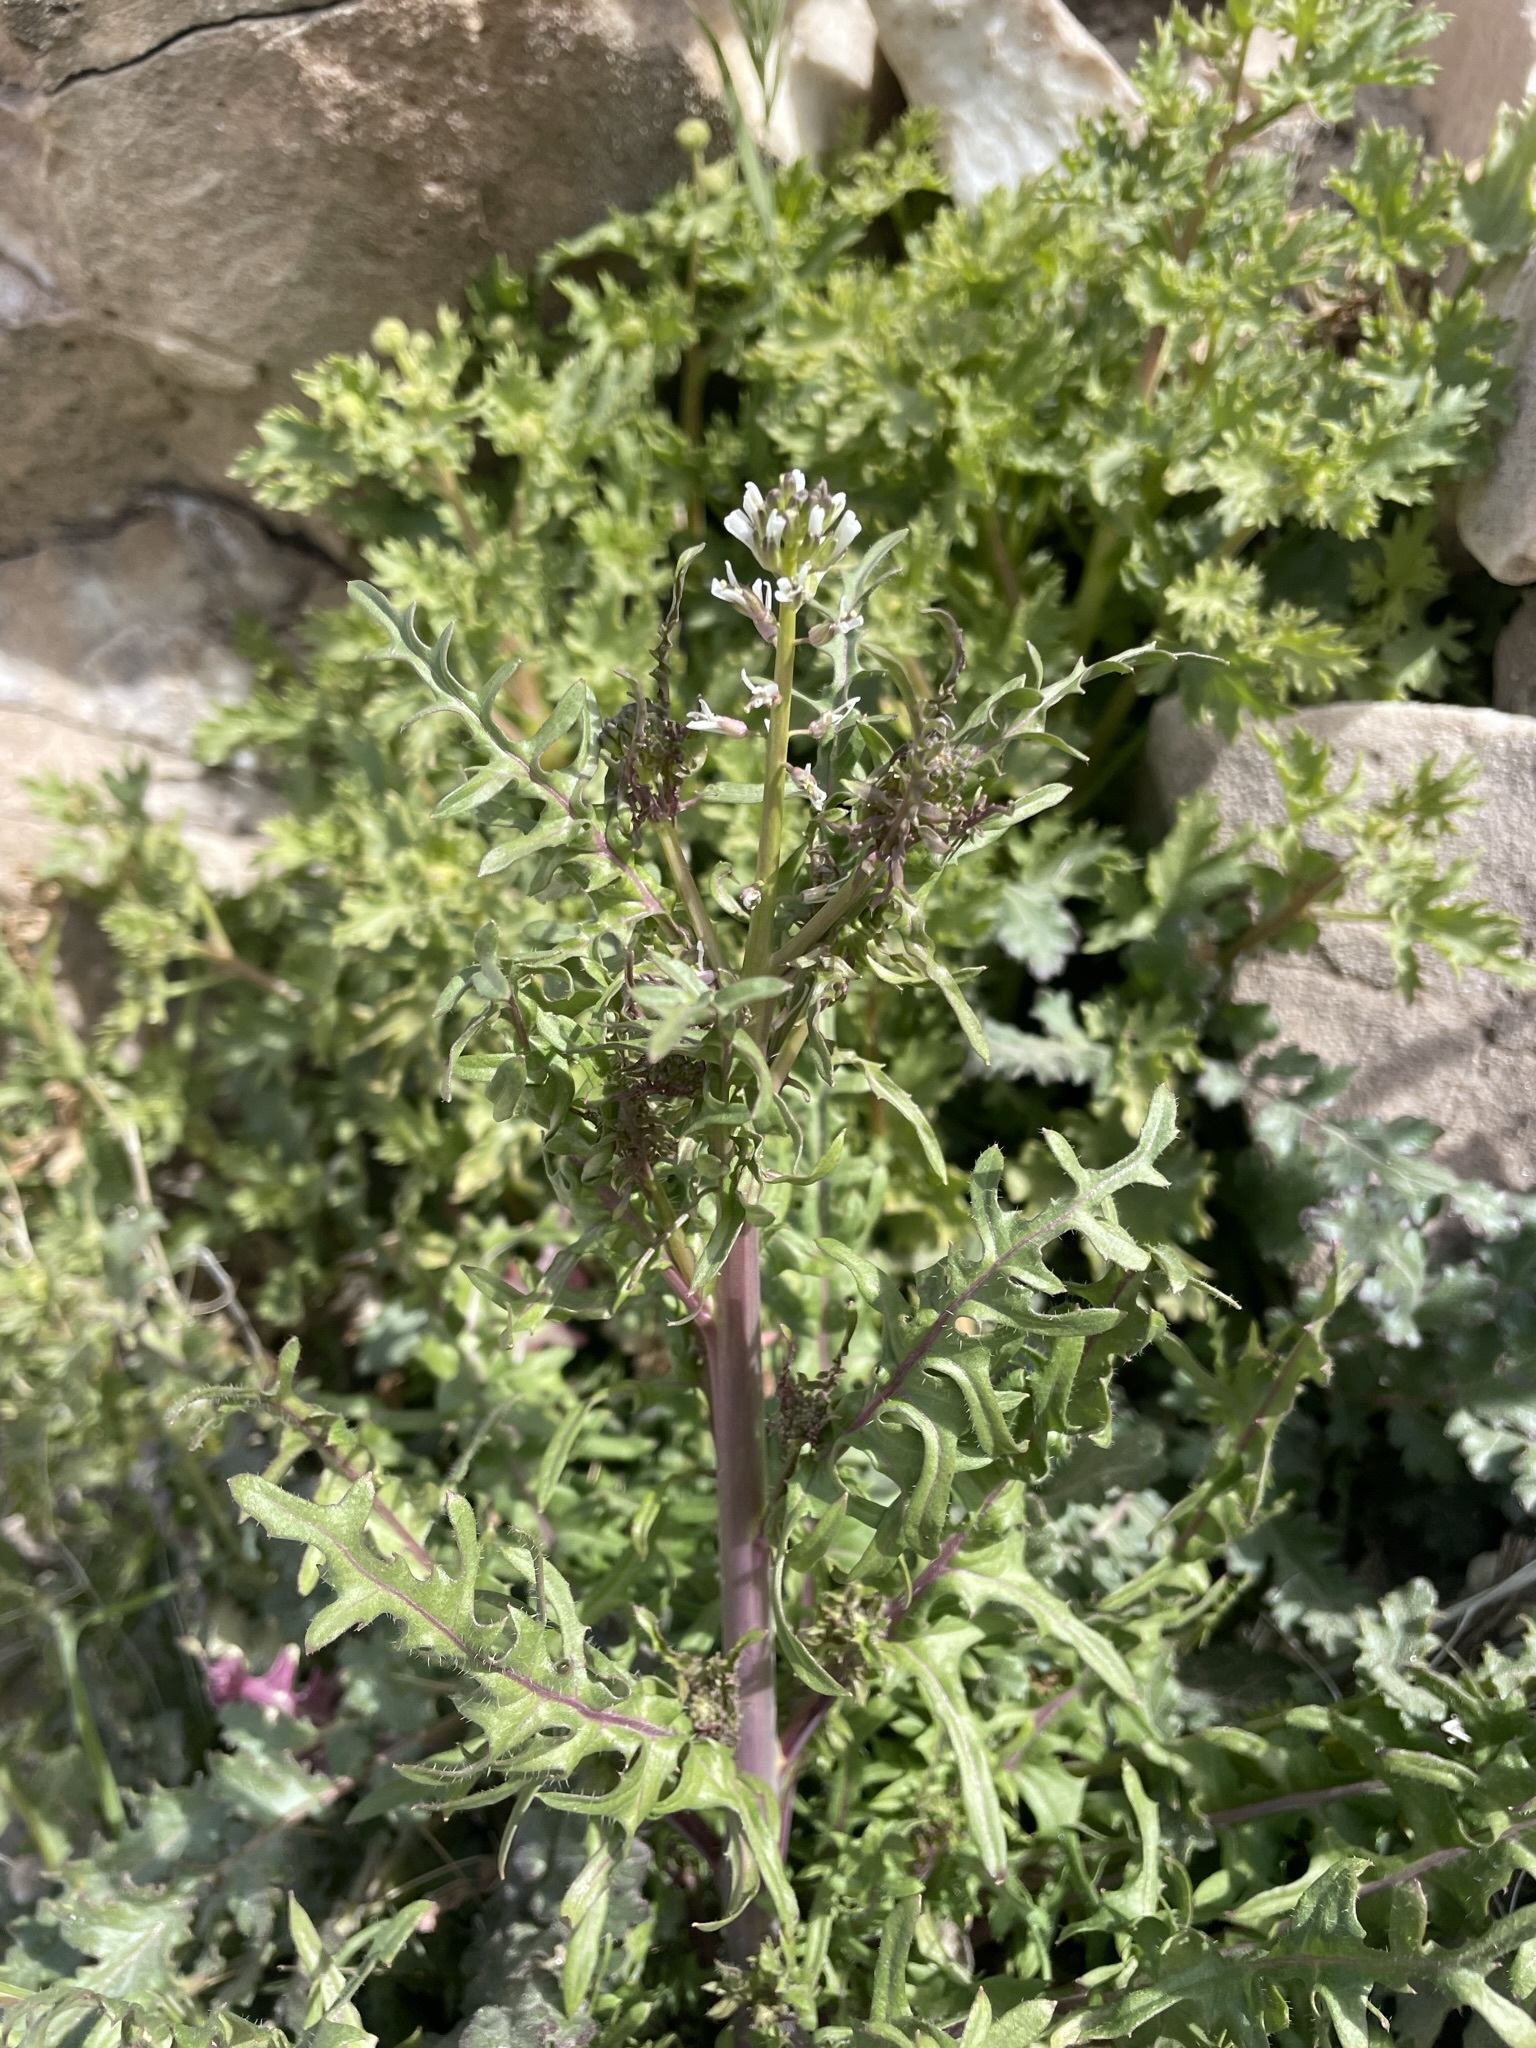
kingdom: Plantae
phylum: Tracheophyta
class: Magnoliopsida
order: Brassicales
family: Brassicaceae
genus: Streptanthus
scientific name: Streptanthus lasiophyllus
